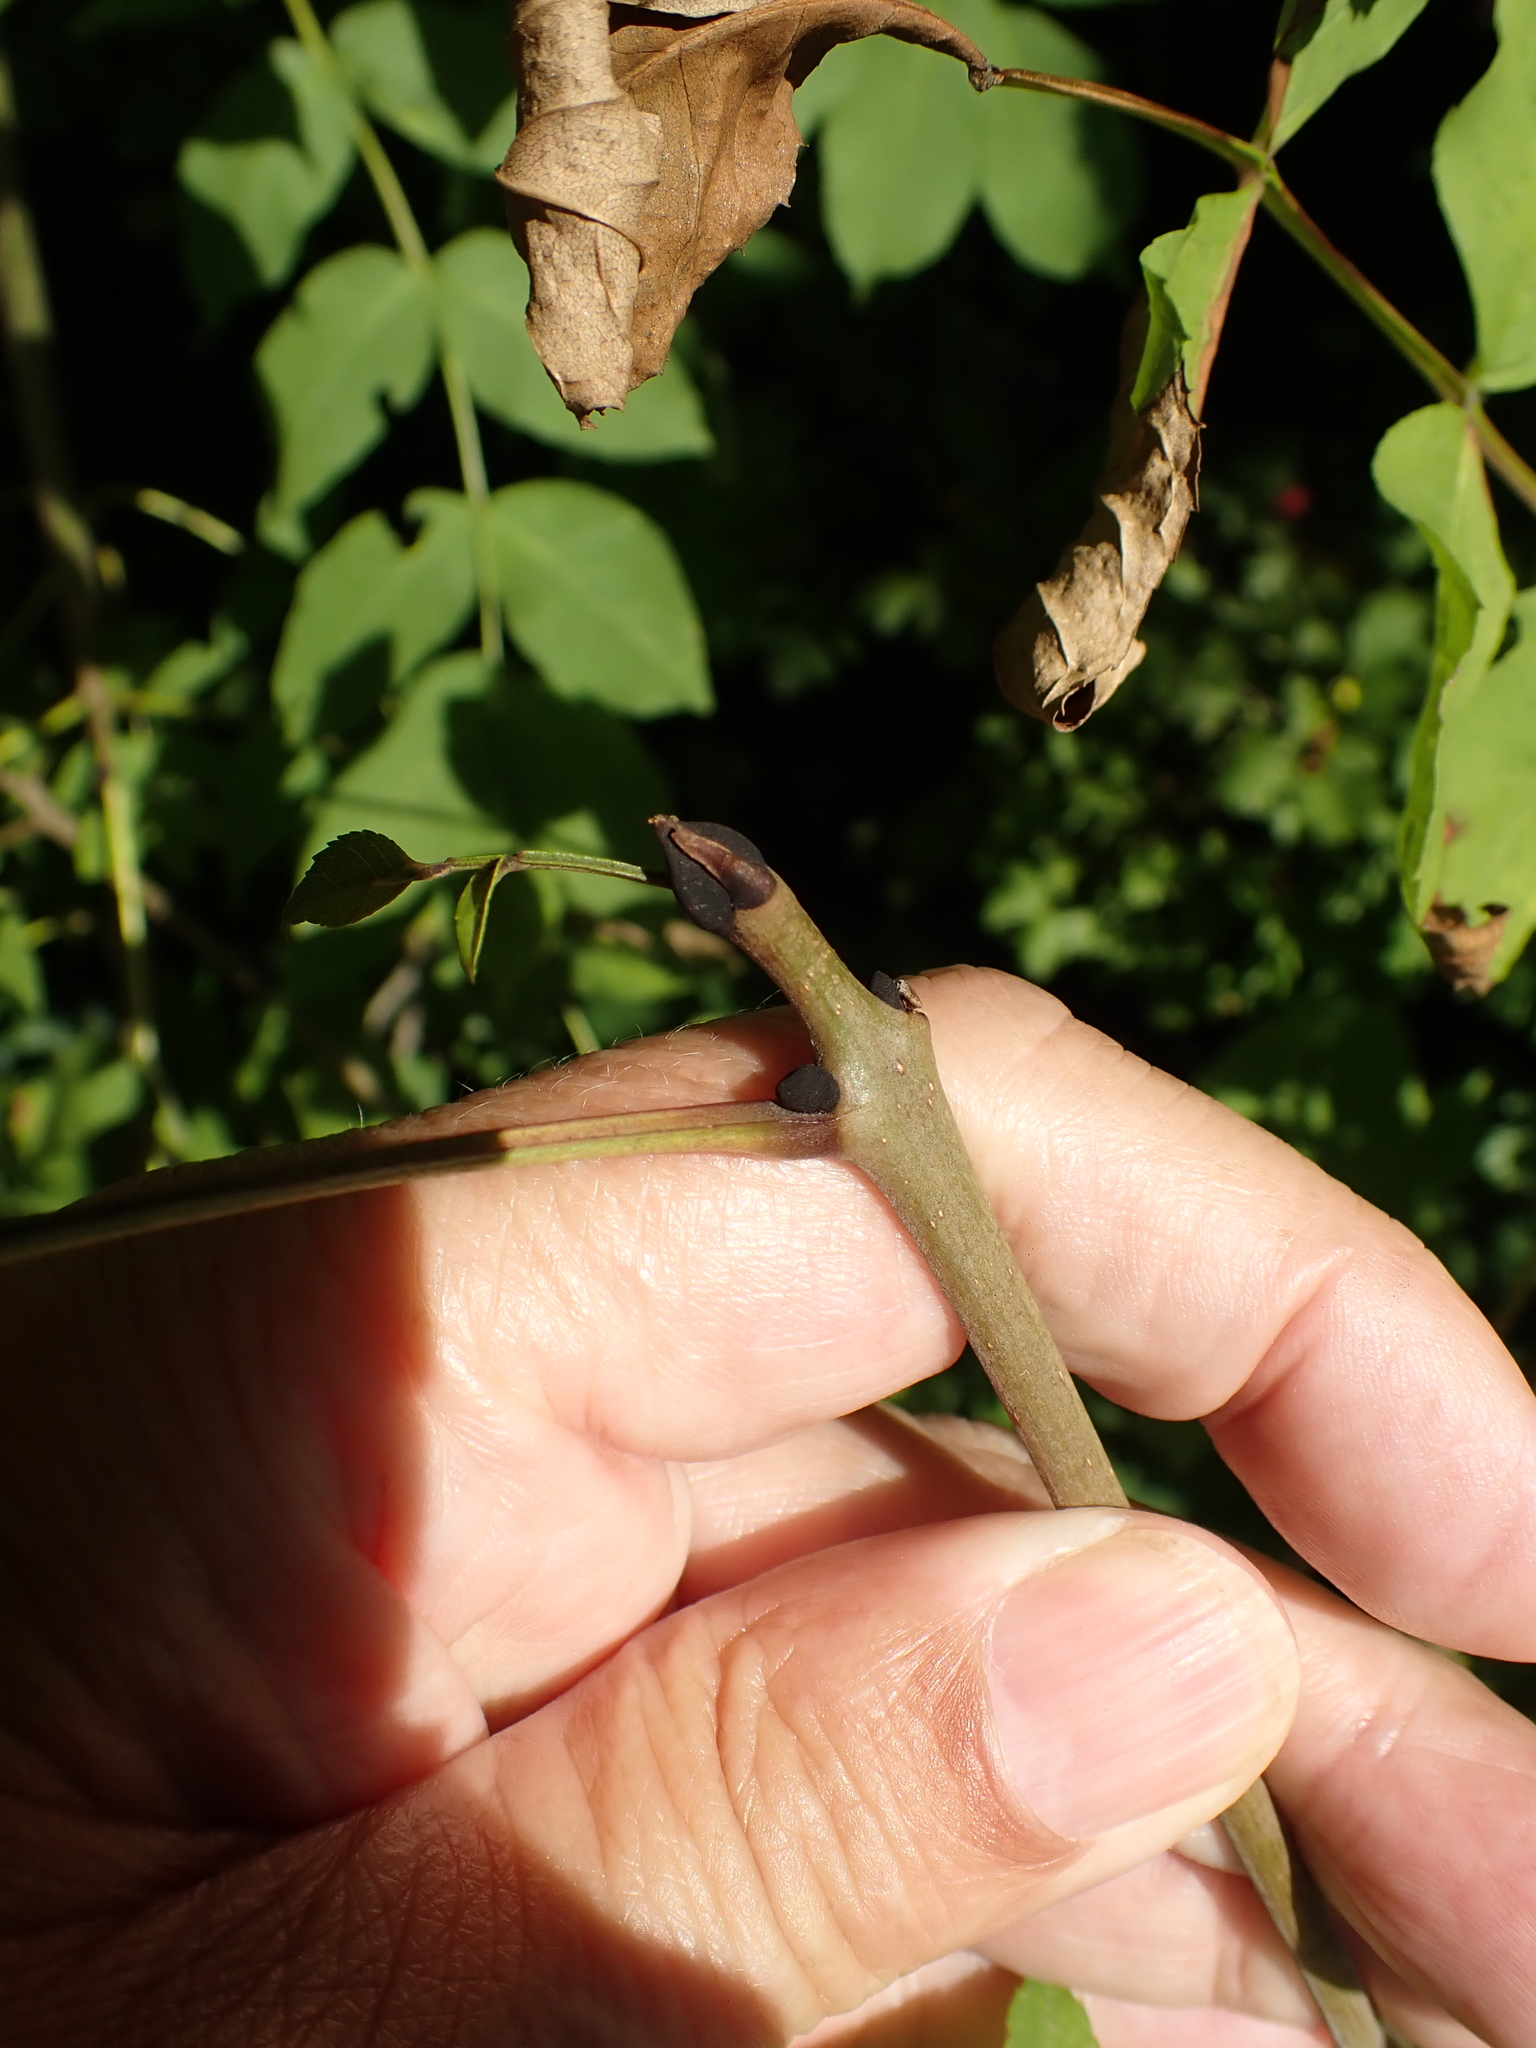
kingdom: Plantae
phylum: Tracheophyta
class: Magnoliopsida
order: Lamiales
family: Oleaceae
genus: Fraxinus
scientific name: Fraxinus excelsior
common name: European ash
